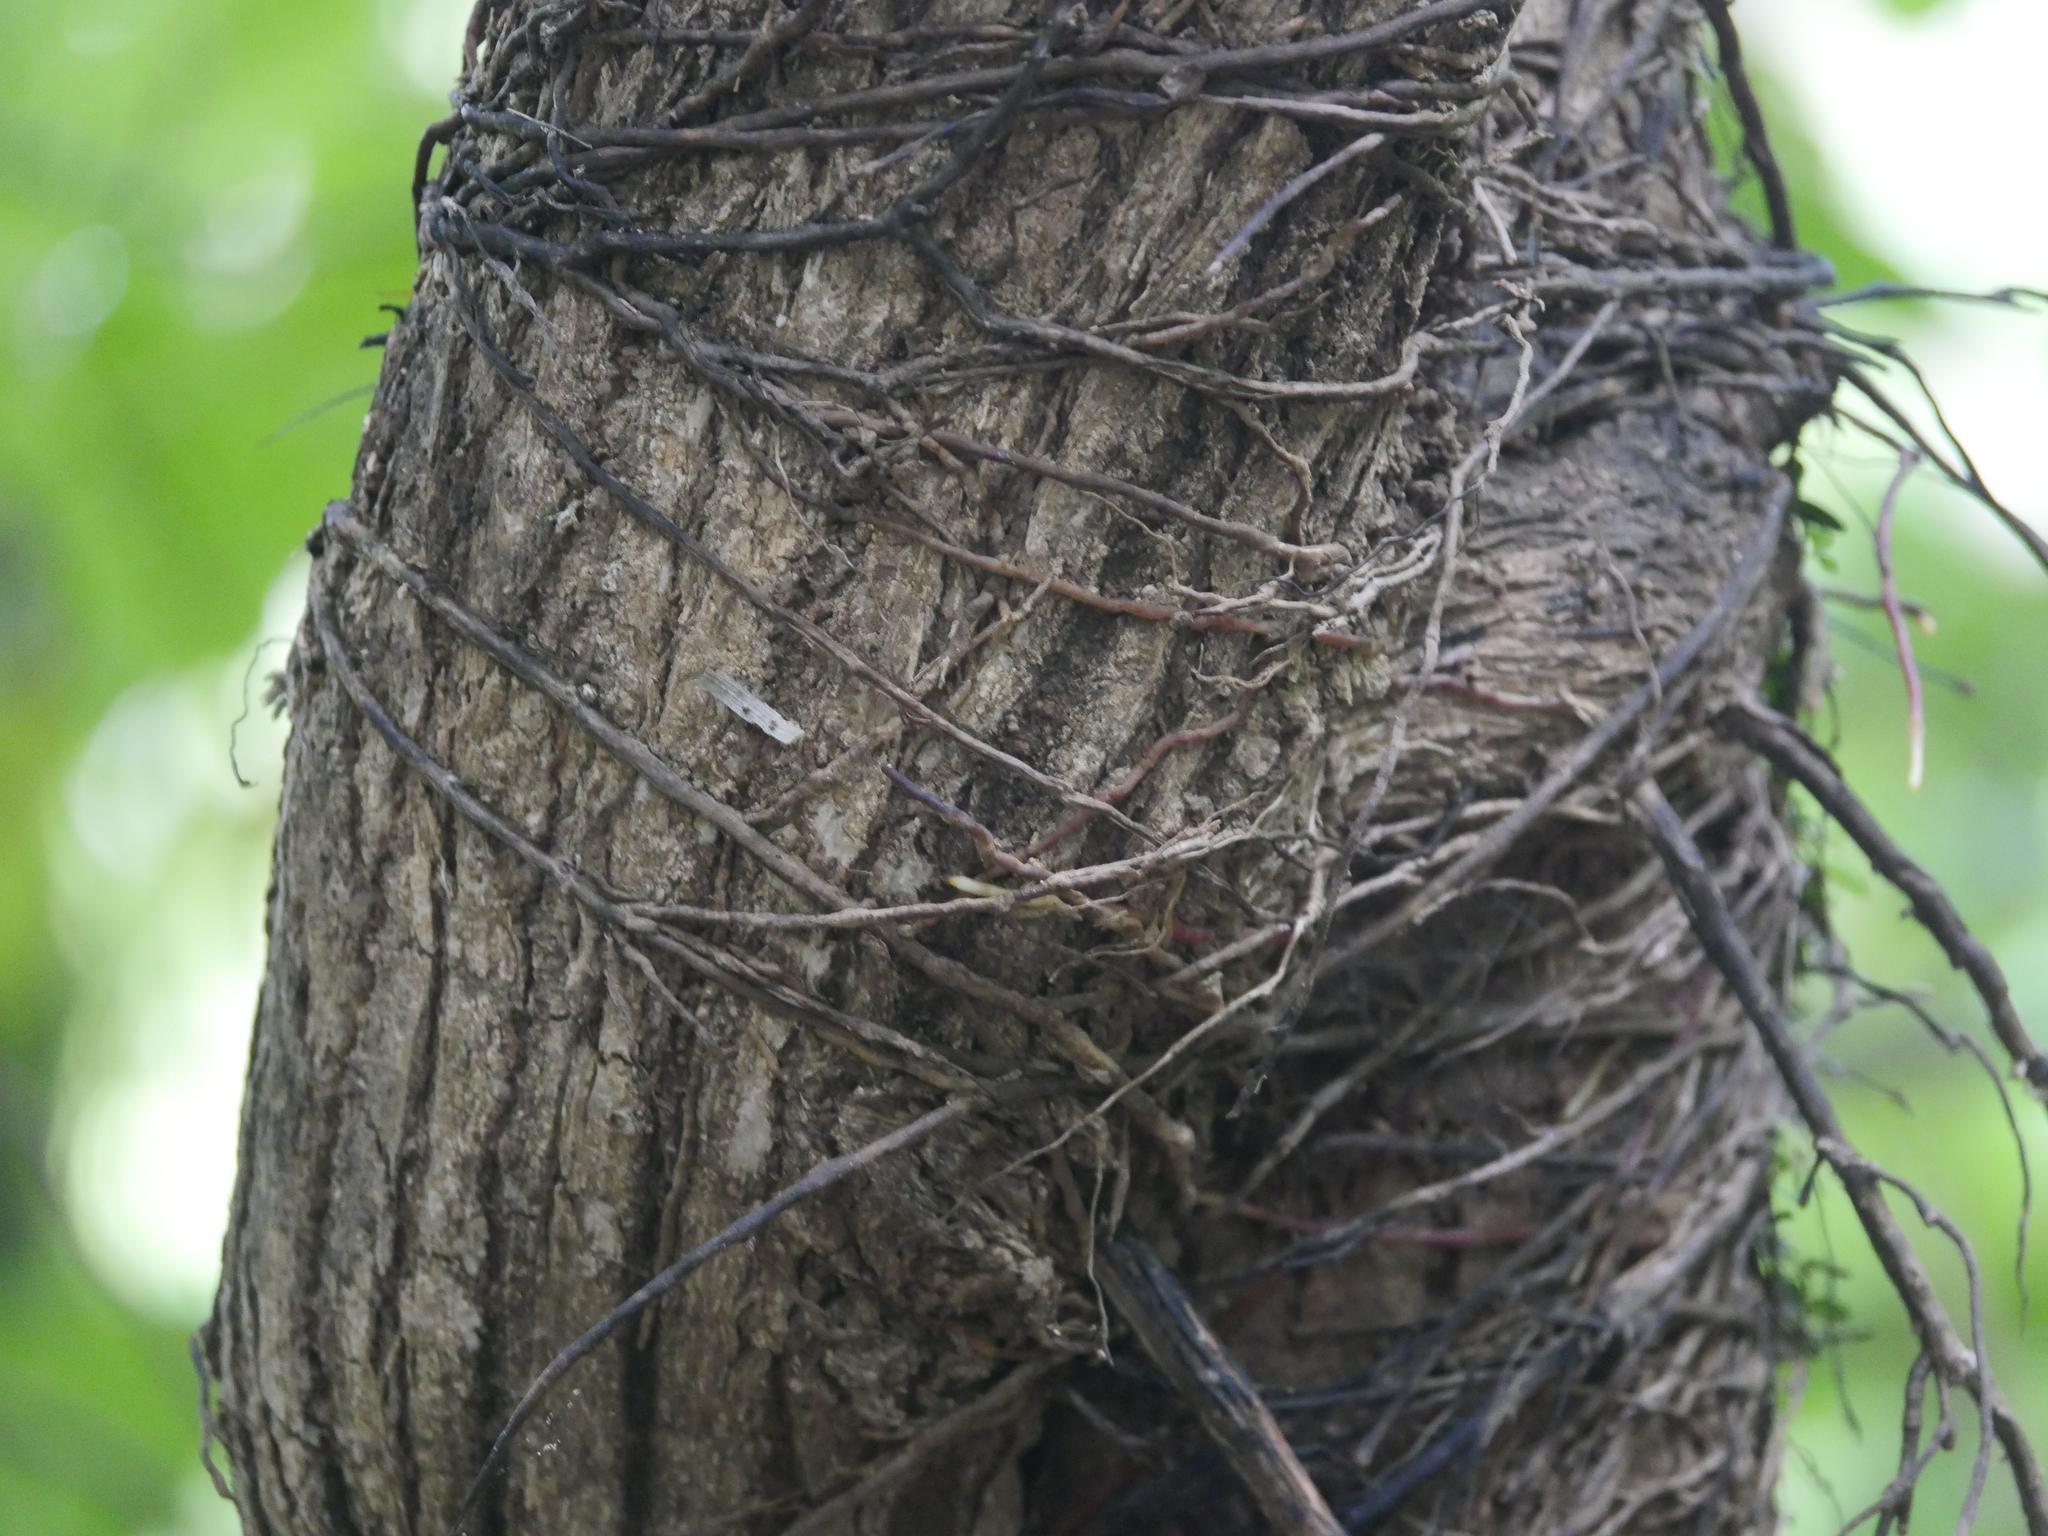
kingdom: Plantae
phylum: Tracheophyta
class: Magnoliopsida
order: Apiales
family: Griseliniaceae
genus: Griselinia
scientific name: Griselinia lucida
